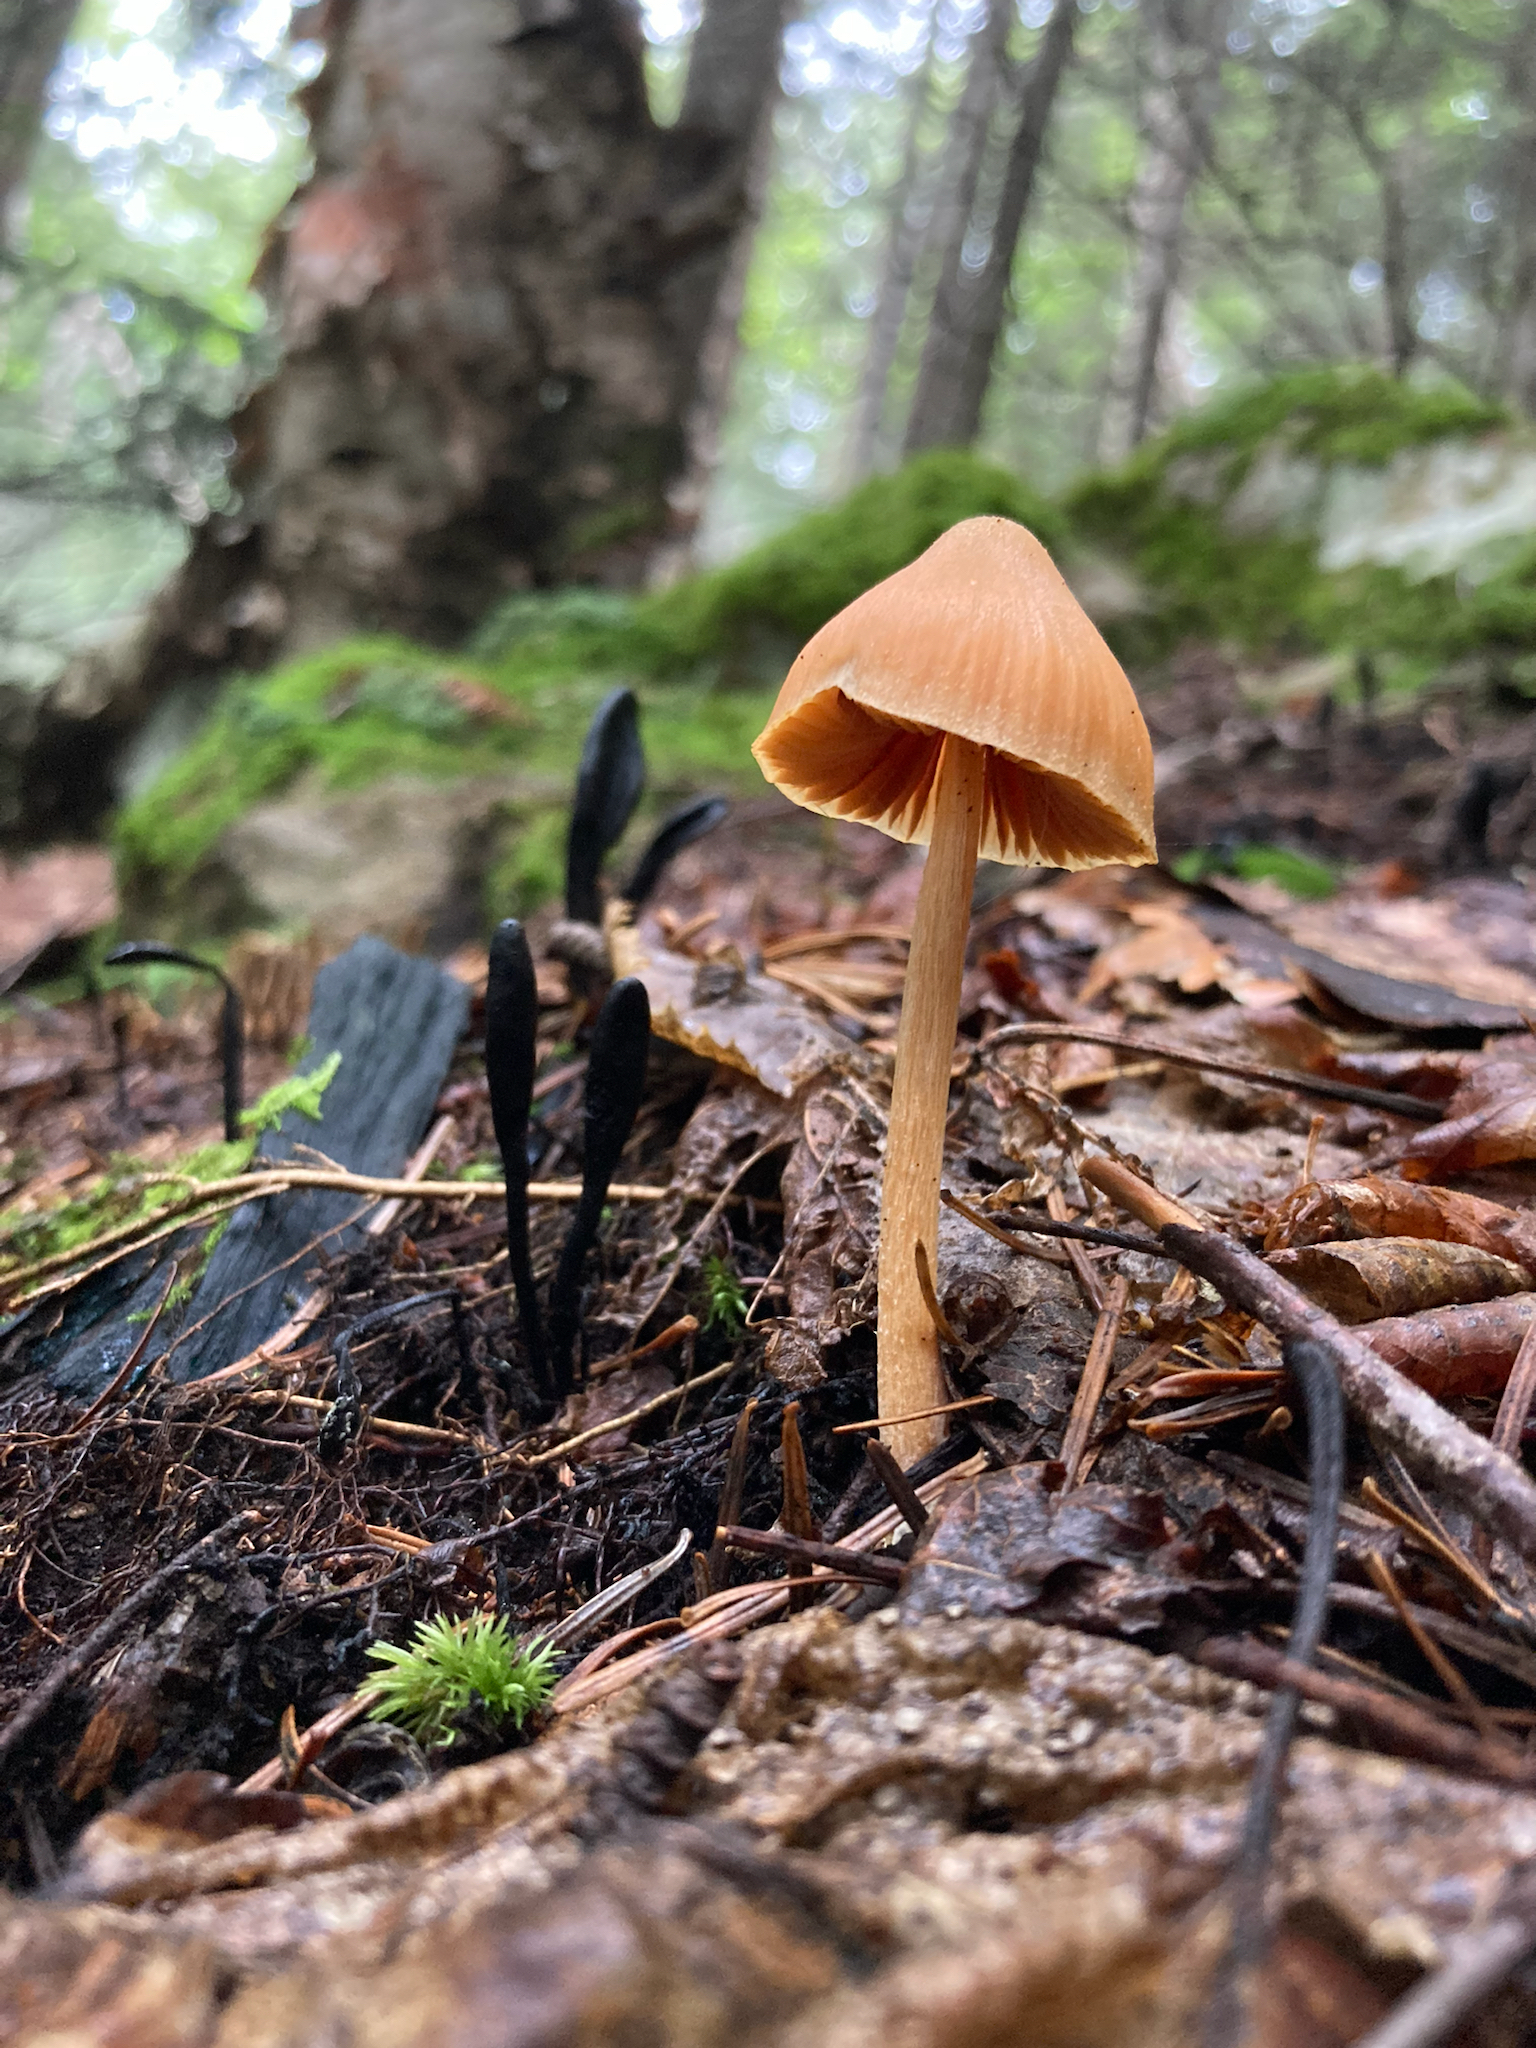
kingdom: Fungi
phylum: Basidiomycota
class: Agaricomycetes
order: Agaricales
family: Entolomataceae
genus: Entoloma
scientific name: Entoloma quadratum
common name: Salmon pinkgill
